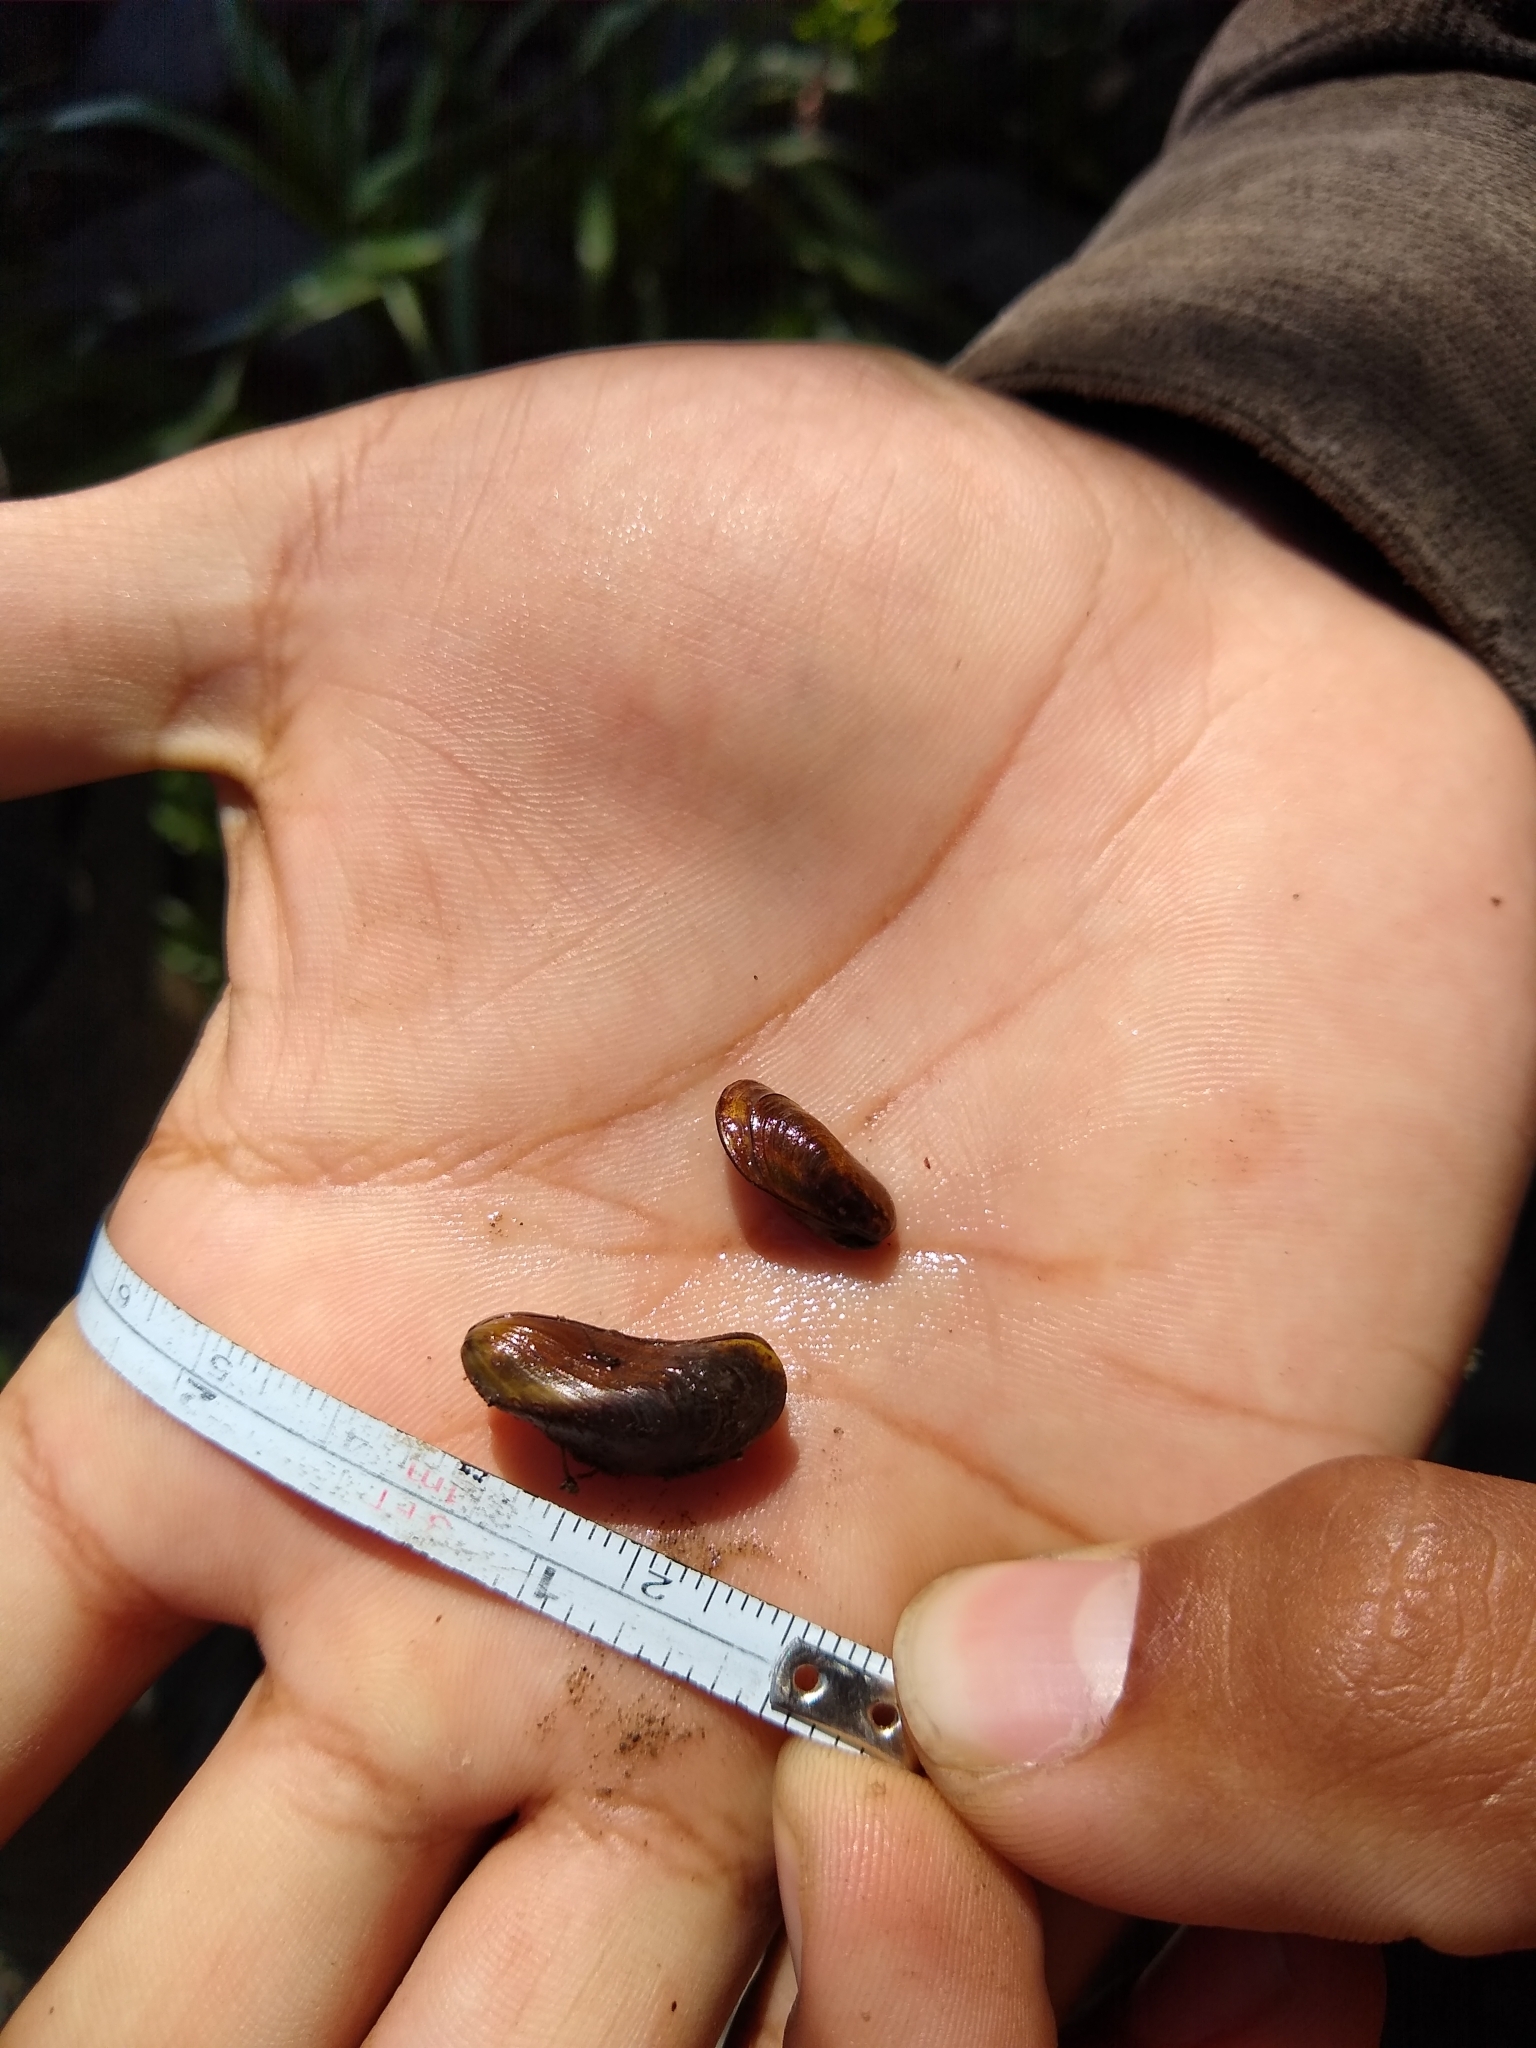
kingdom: Animalia
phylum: Mollusca
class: Bivalvia
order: Mytilida
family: Mytilidae
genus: Limnoperna
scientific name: Limnoperna fortunei
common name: Golden mussel
